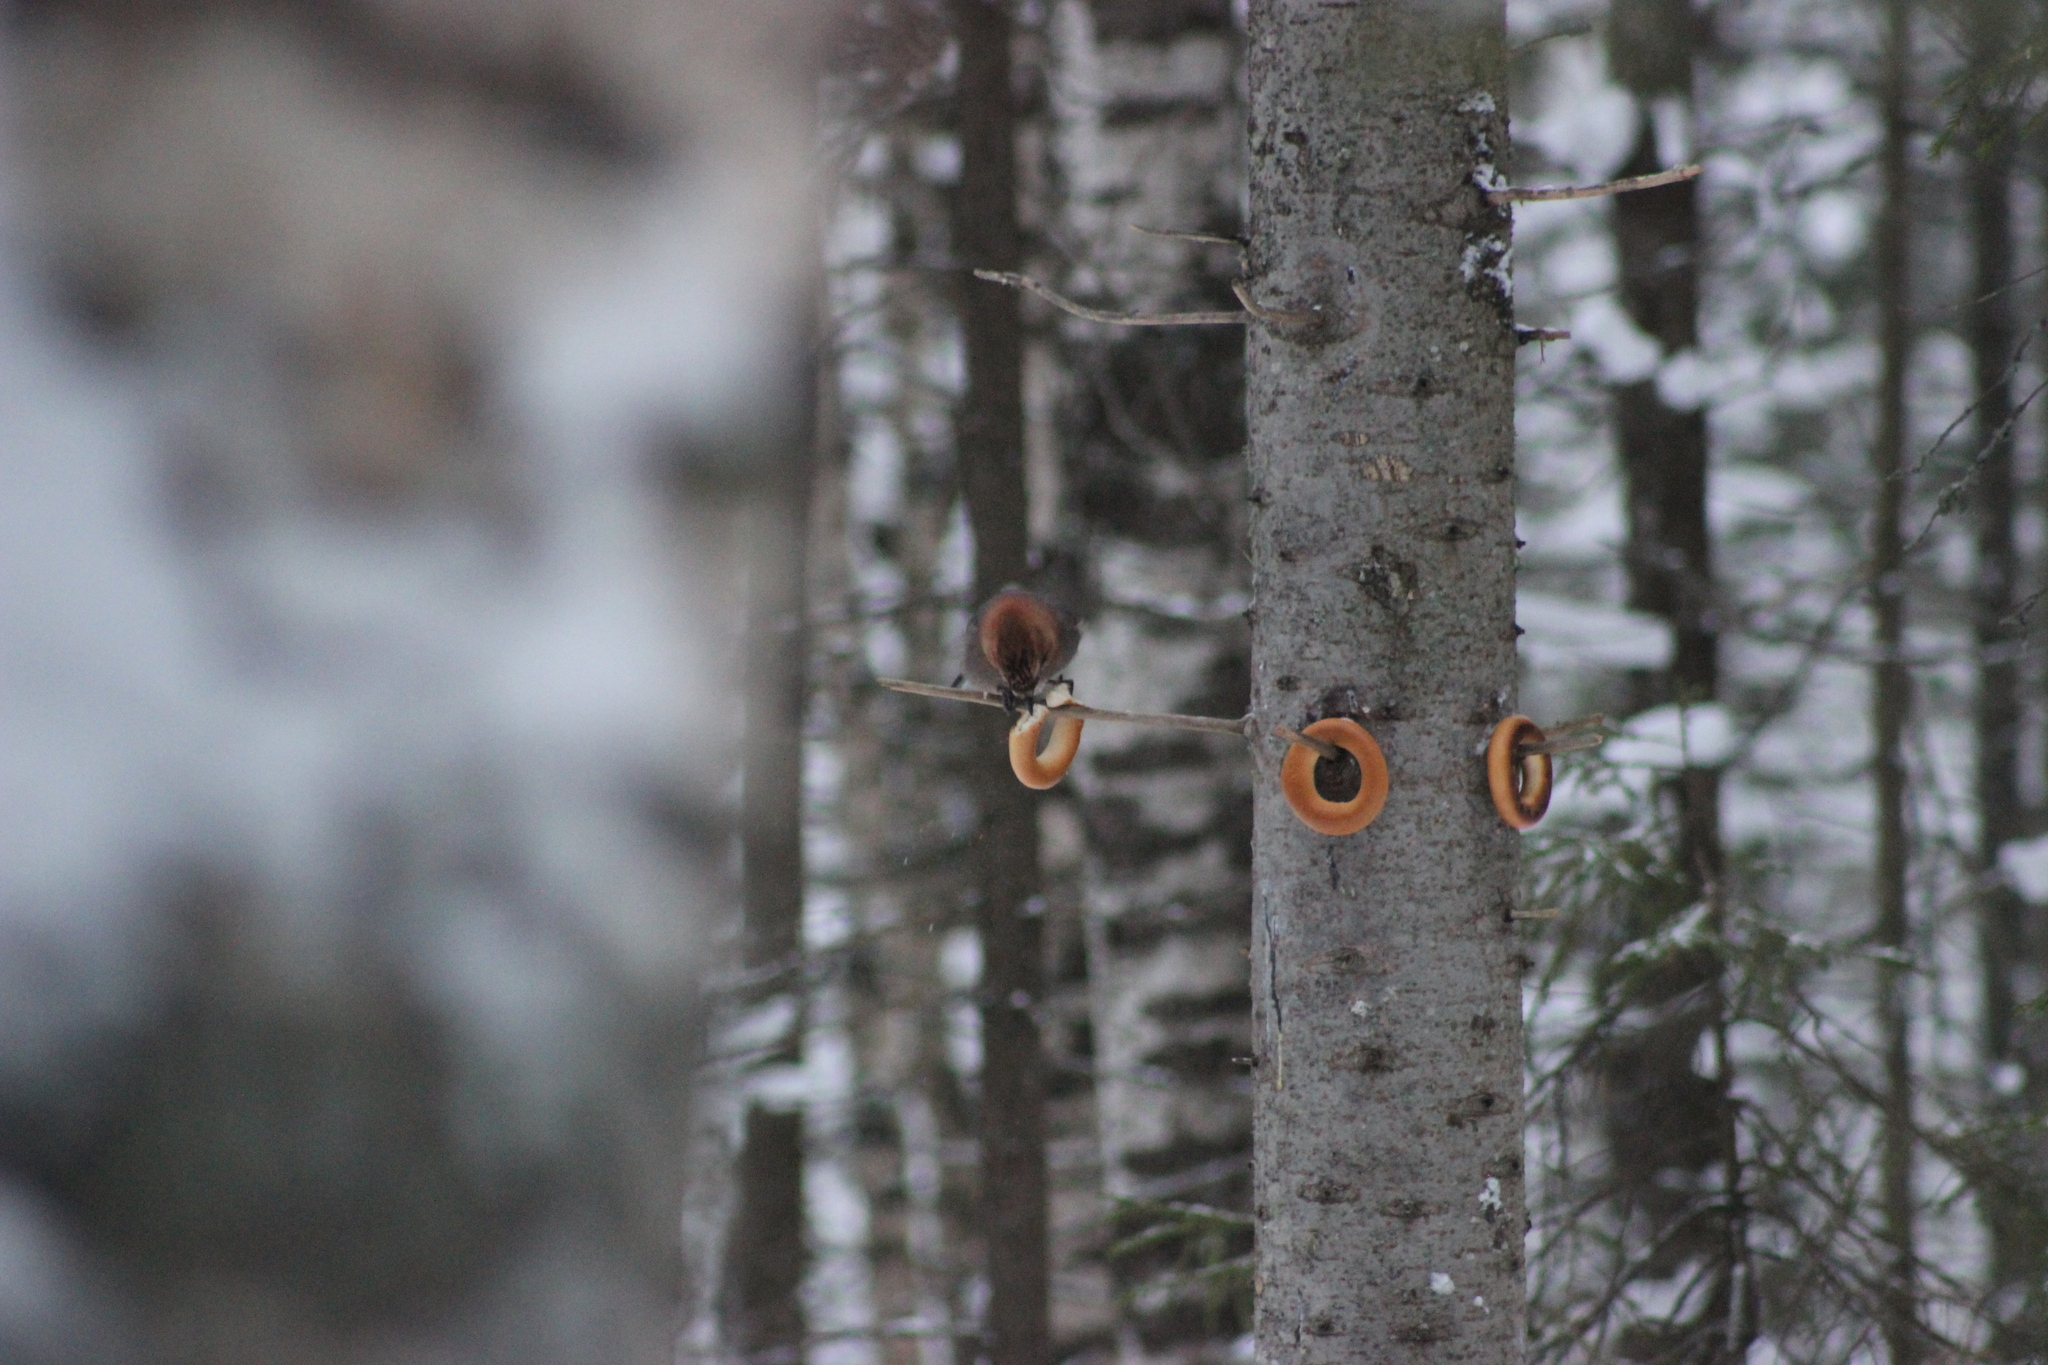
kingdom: Animalia
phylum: Chordata
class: Aves
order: Passeriformes
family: Corvidae
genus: Garrulus
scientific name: Garrulus glandarius
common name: Eurasian jay
